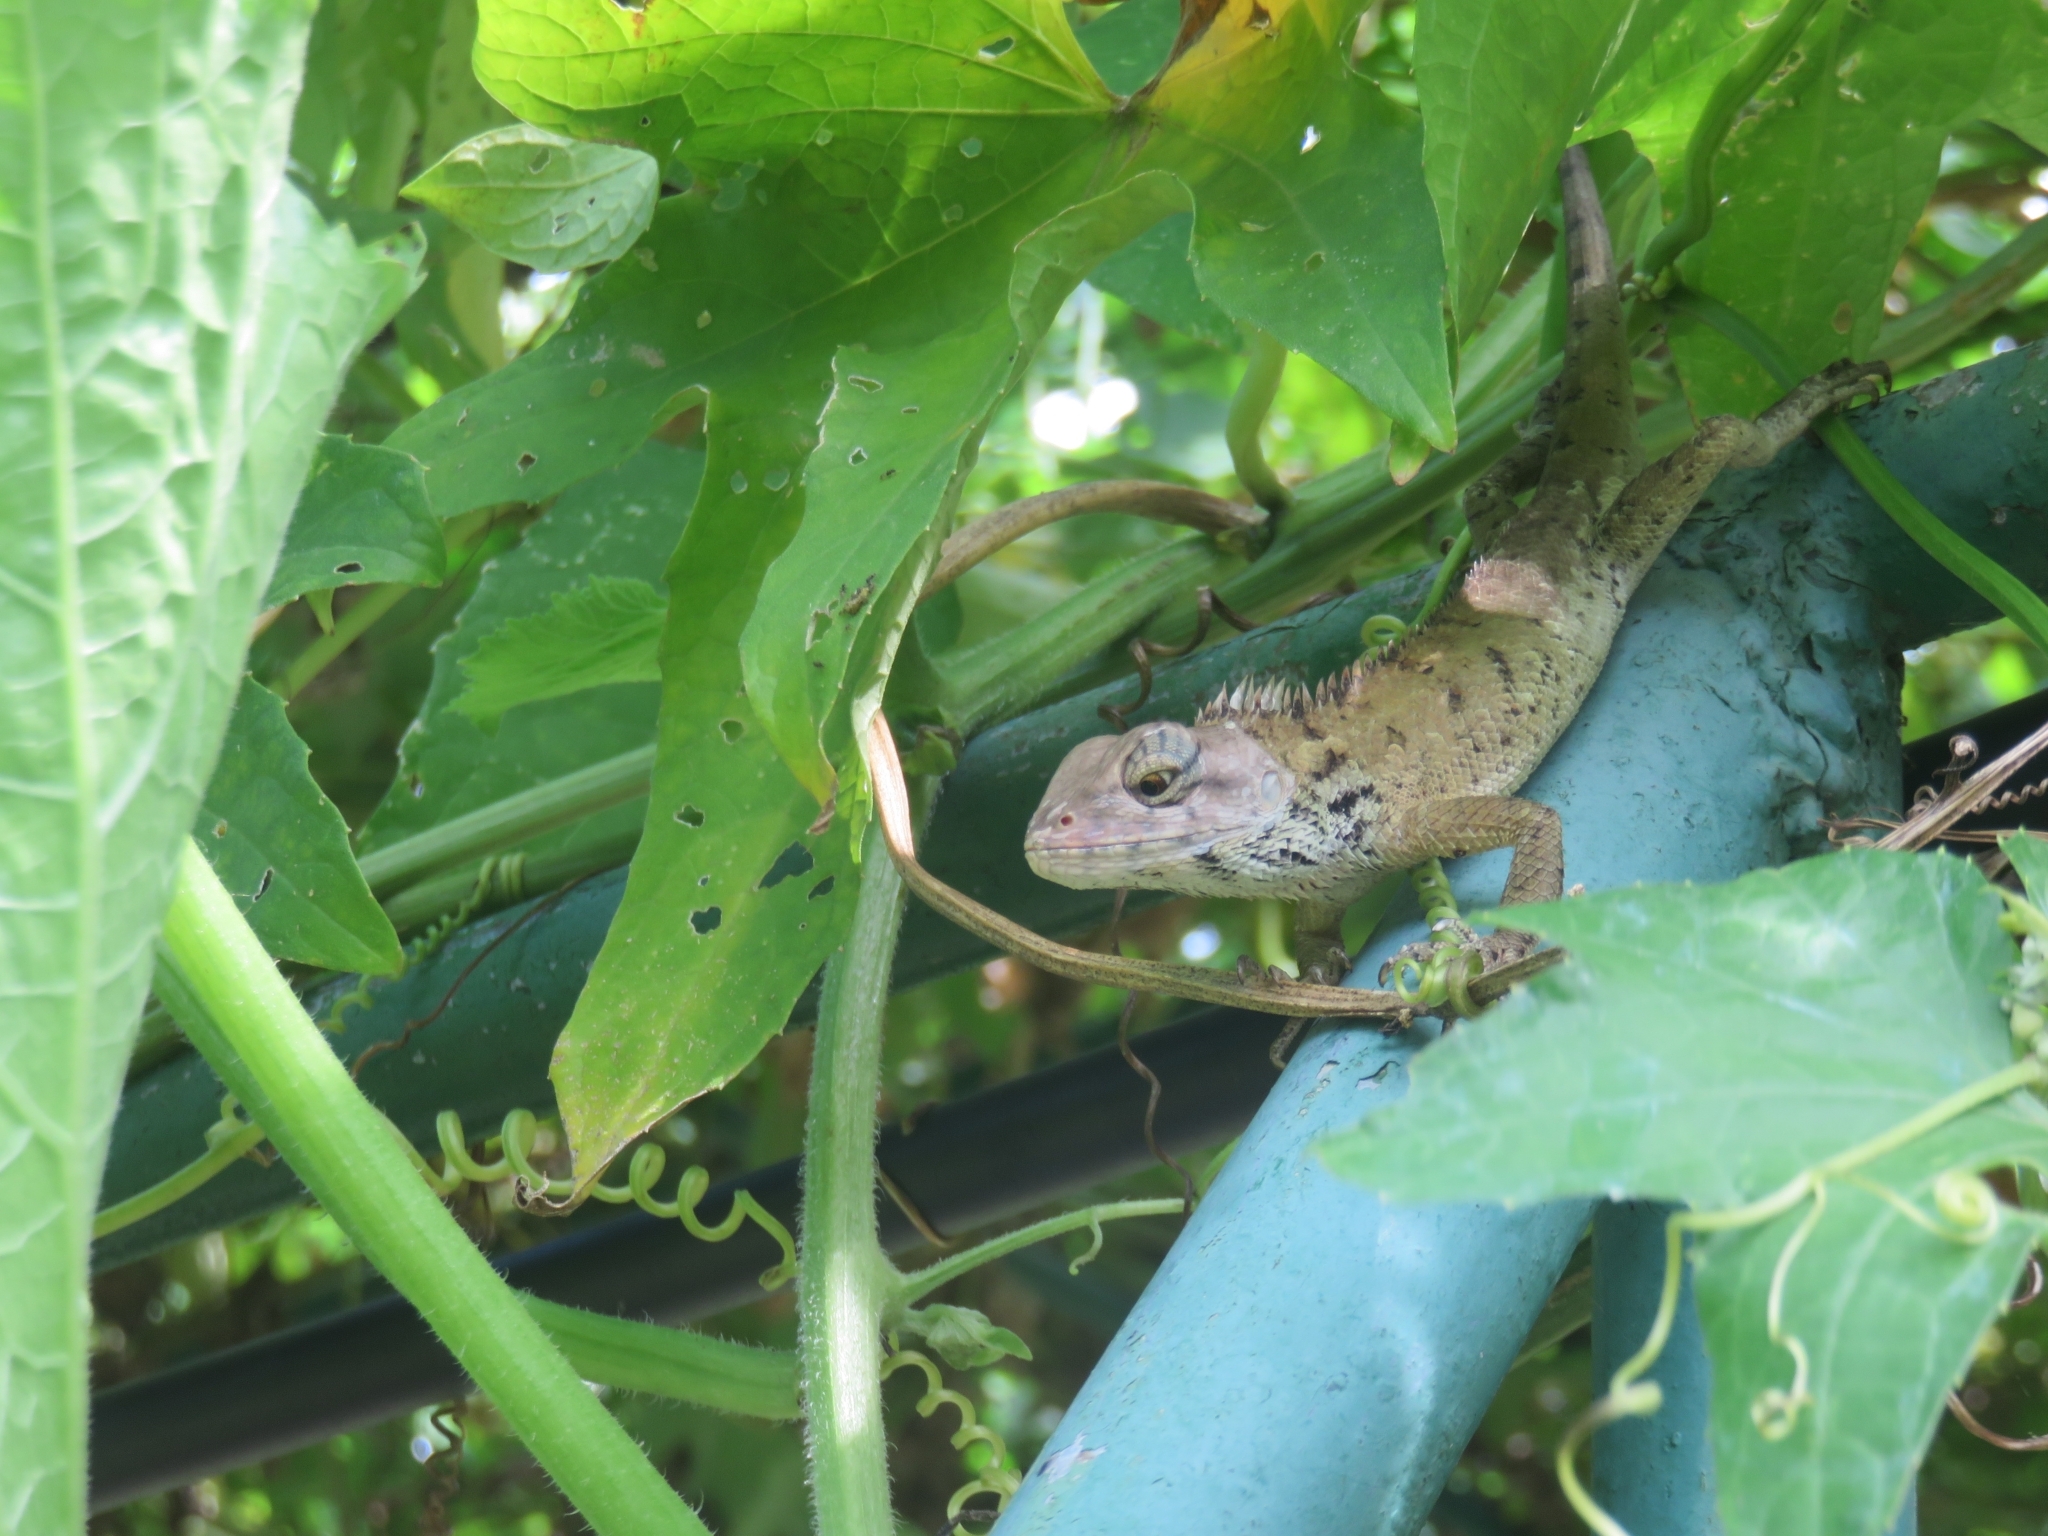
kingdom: Animalia
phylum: Chordata
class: Squamata
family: Agamidae
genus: Calotes
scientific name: Calotes versicolor
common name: Oriental garden lizard
